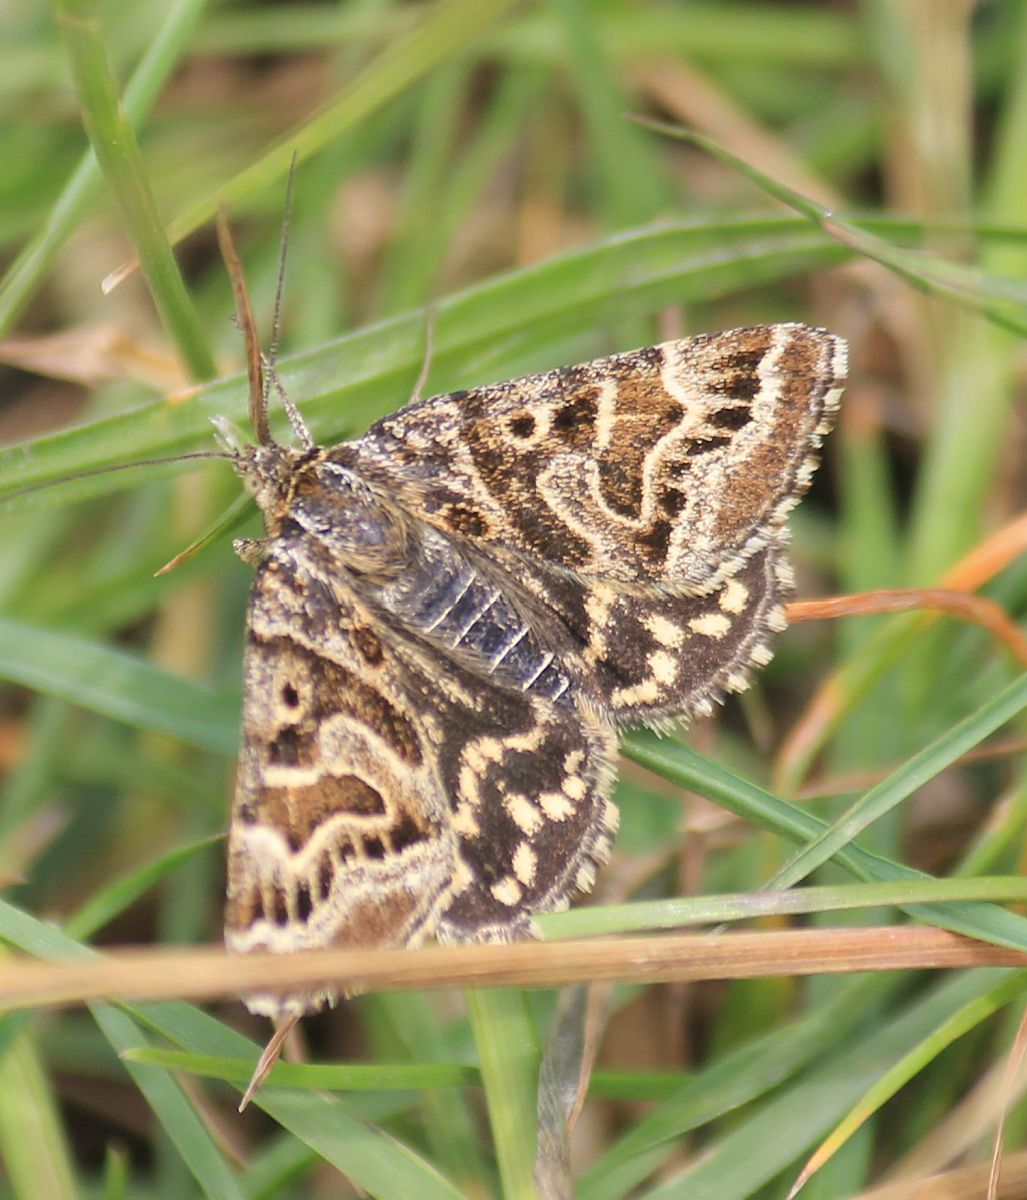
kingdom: Animalia
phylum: Arthropoda
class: Insecta
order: Lepidoptera
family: Erebidae
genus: Callistege
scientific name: Callistege mi
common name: Mother shipton
